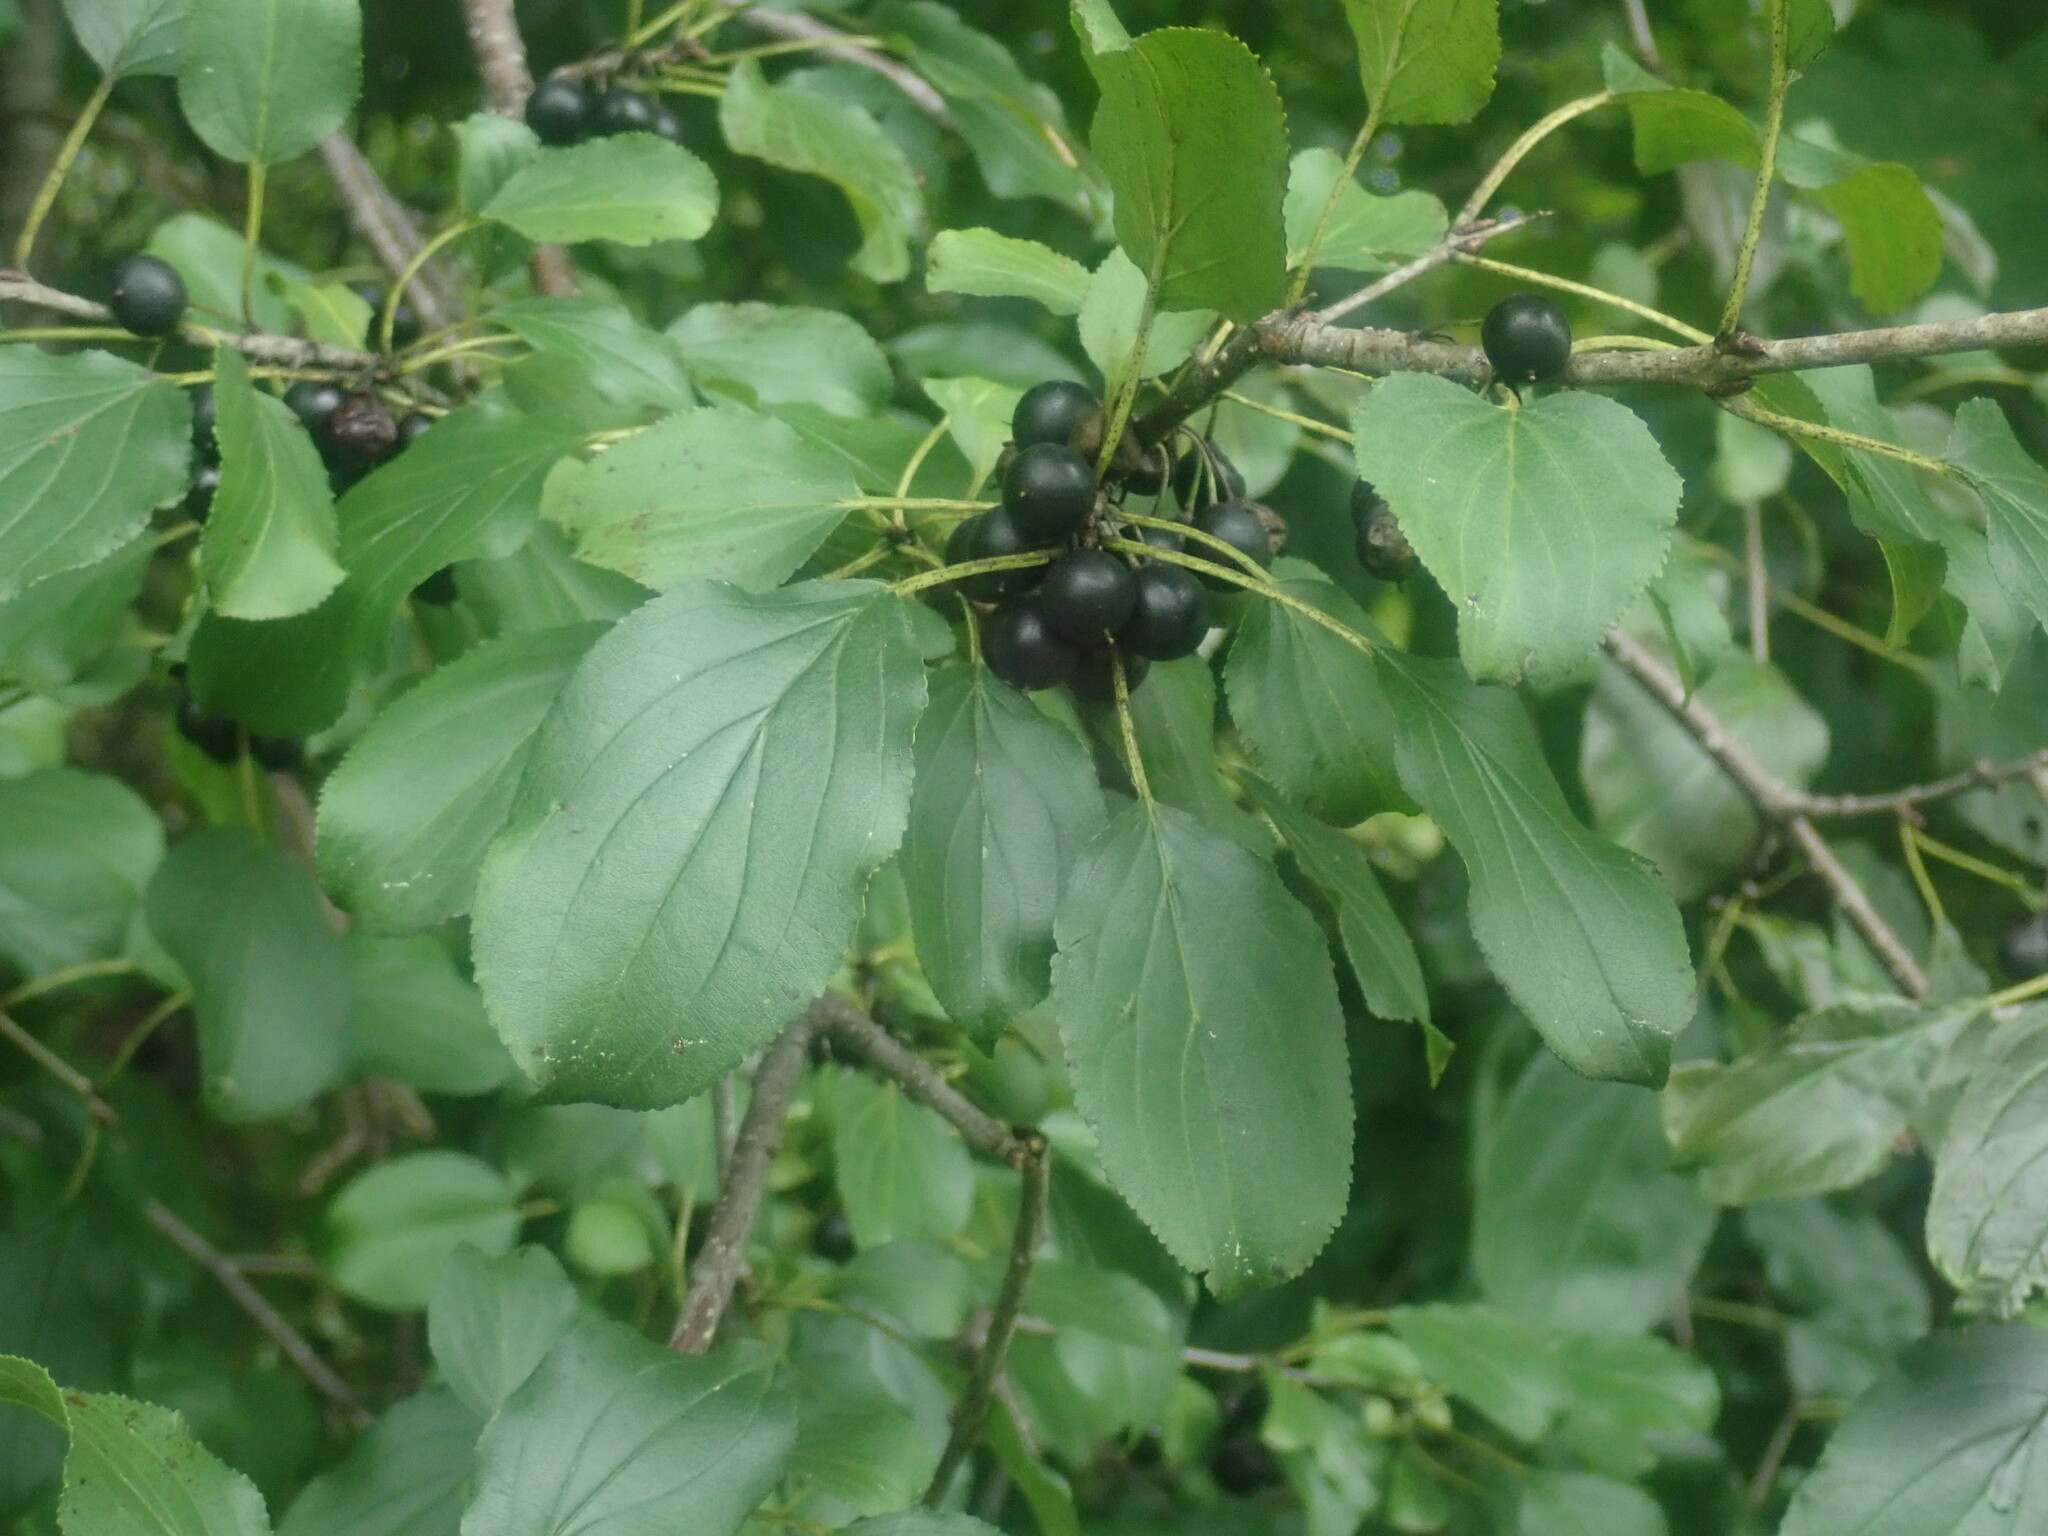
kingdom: Plantae
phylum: Tracheophyta
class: Magnoliopsida
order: Rosales
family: Rhamnaceae
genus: Rhamnus
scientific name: Rhamnus cathartica
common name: Common buckthorn
